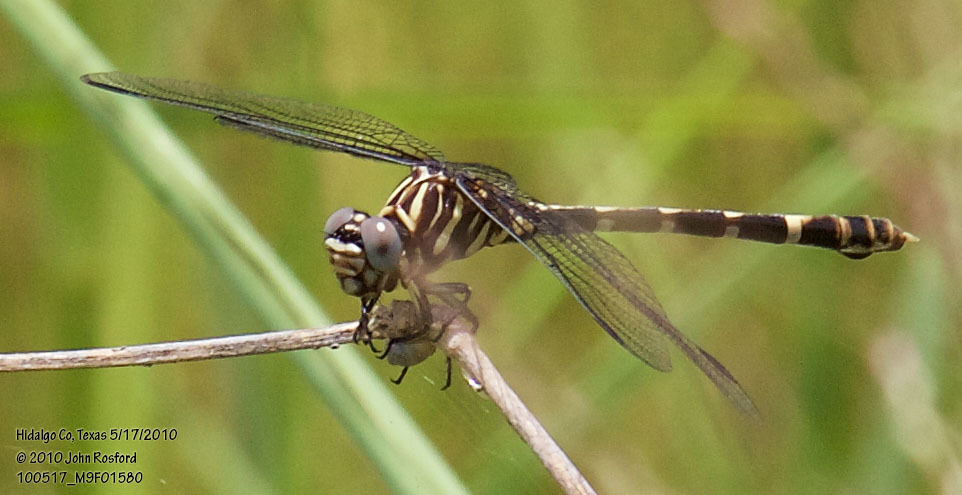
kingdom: Animalia
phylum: Arthropoda
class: Insecta
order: Odonata
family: Gomphidae
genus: Phyllogomphoides
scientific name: Phyllogomphoides albrighti
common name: Five-striped leaftail
